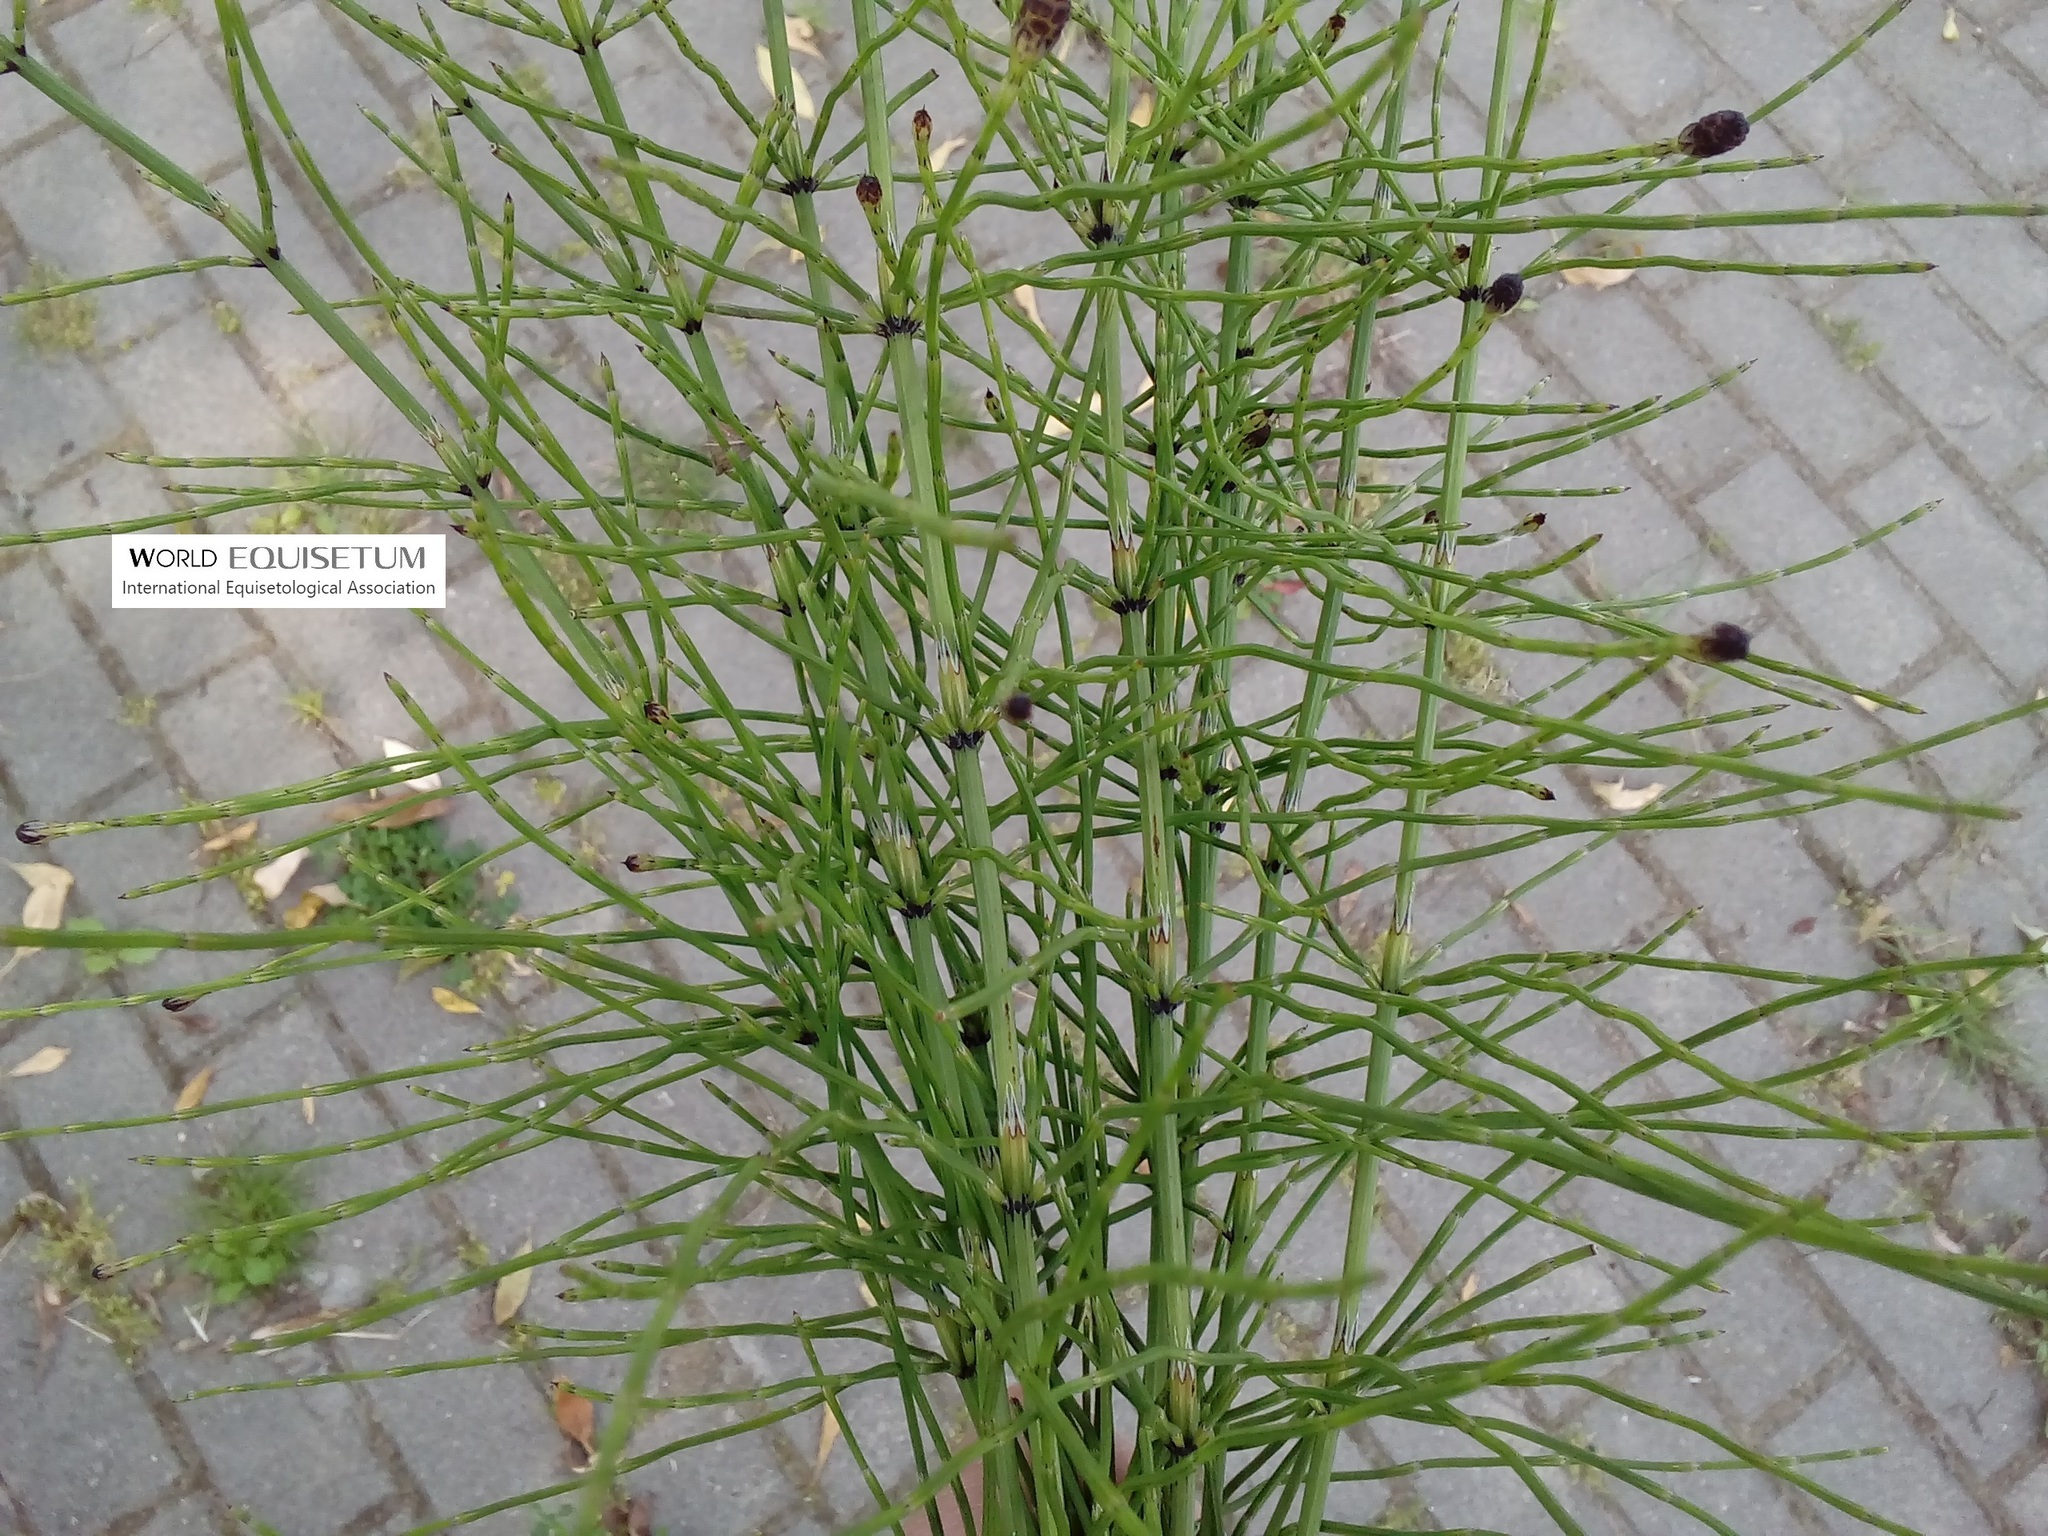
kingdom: Plantae
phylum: Tracheophyta
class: Polypodiopsida
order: Equisetales
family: Equisetaceae
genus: Equisetum
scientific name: Equisetum palustre
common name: Marsh horsetail
